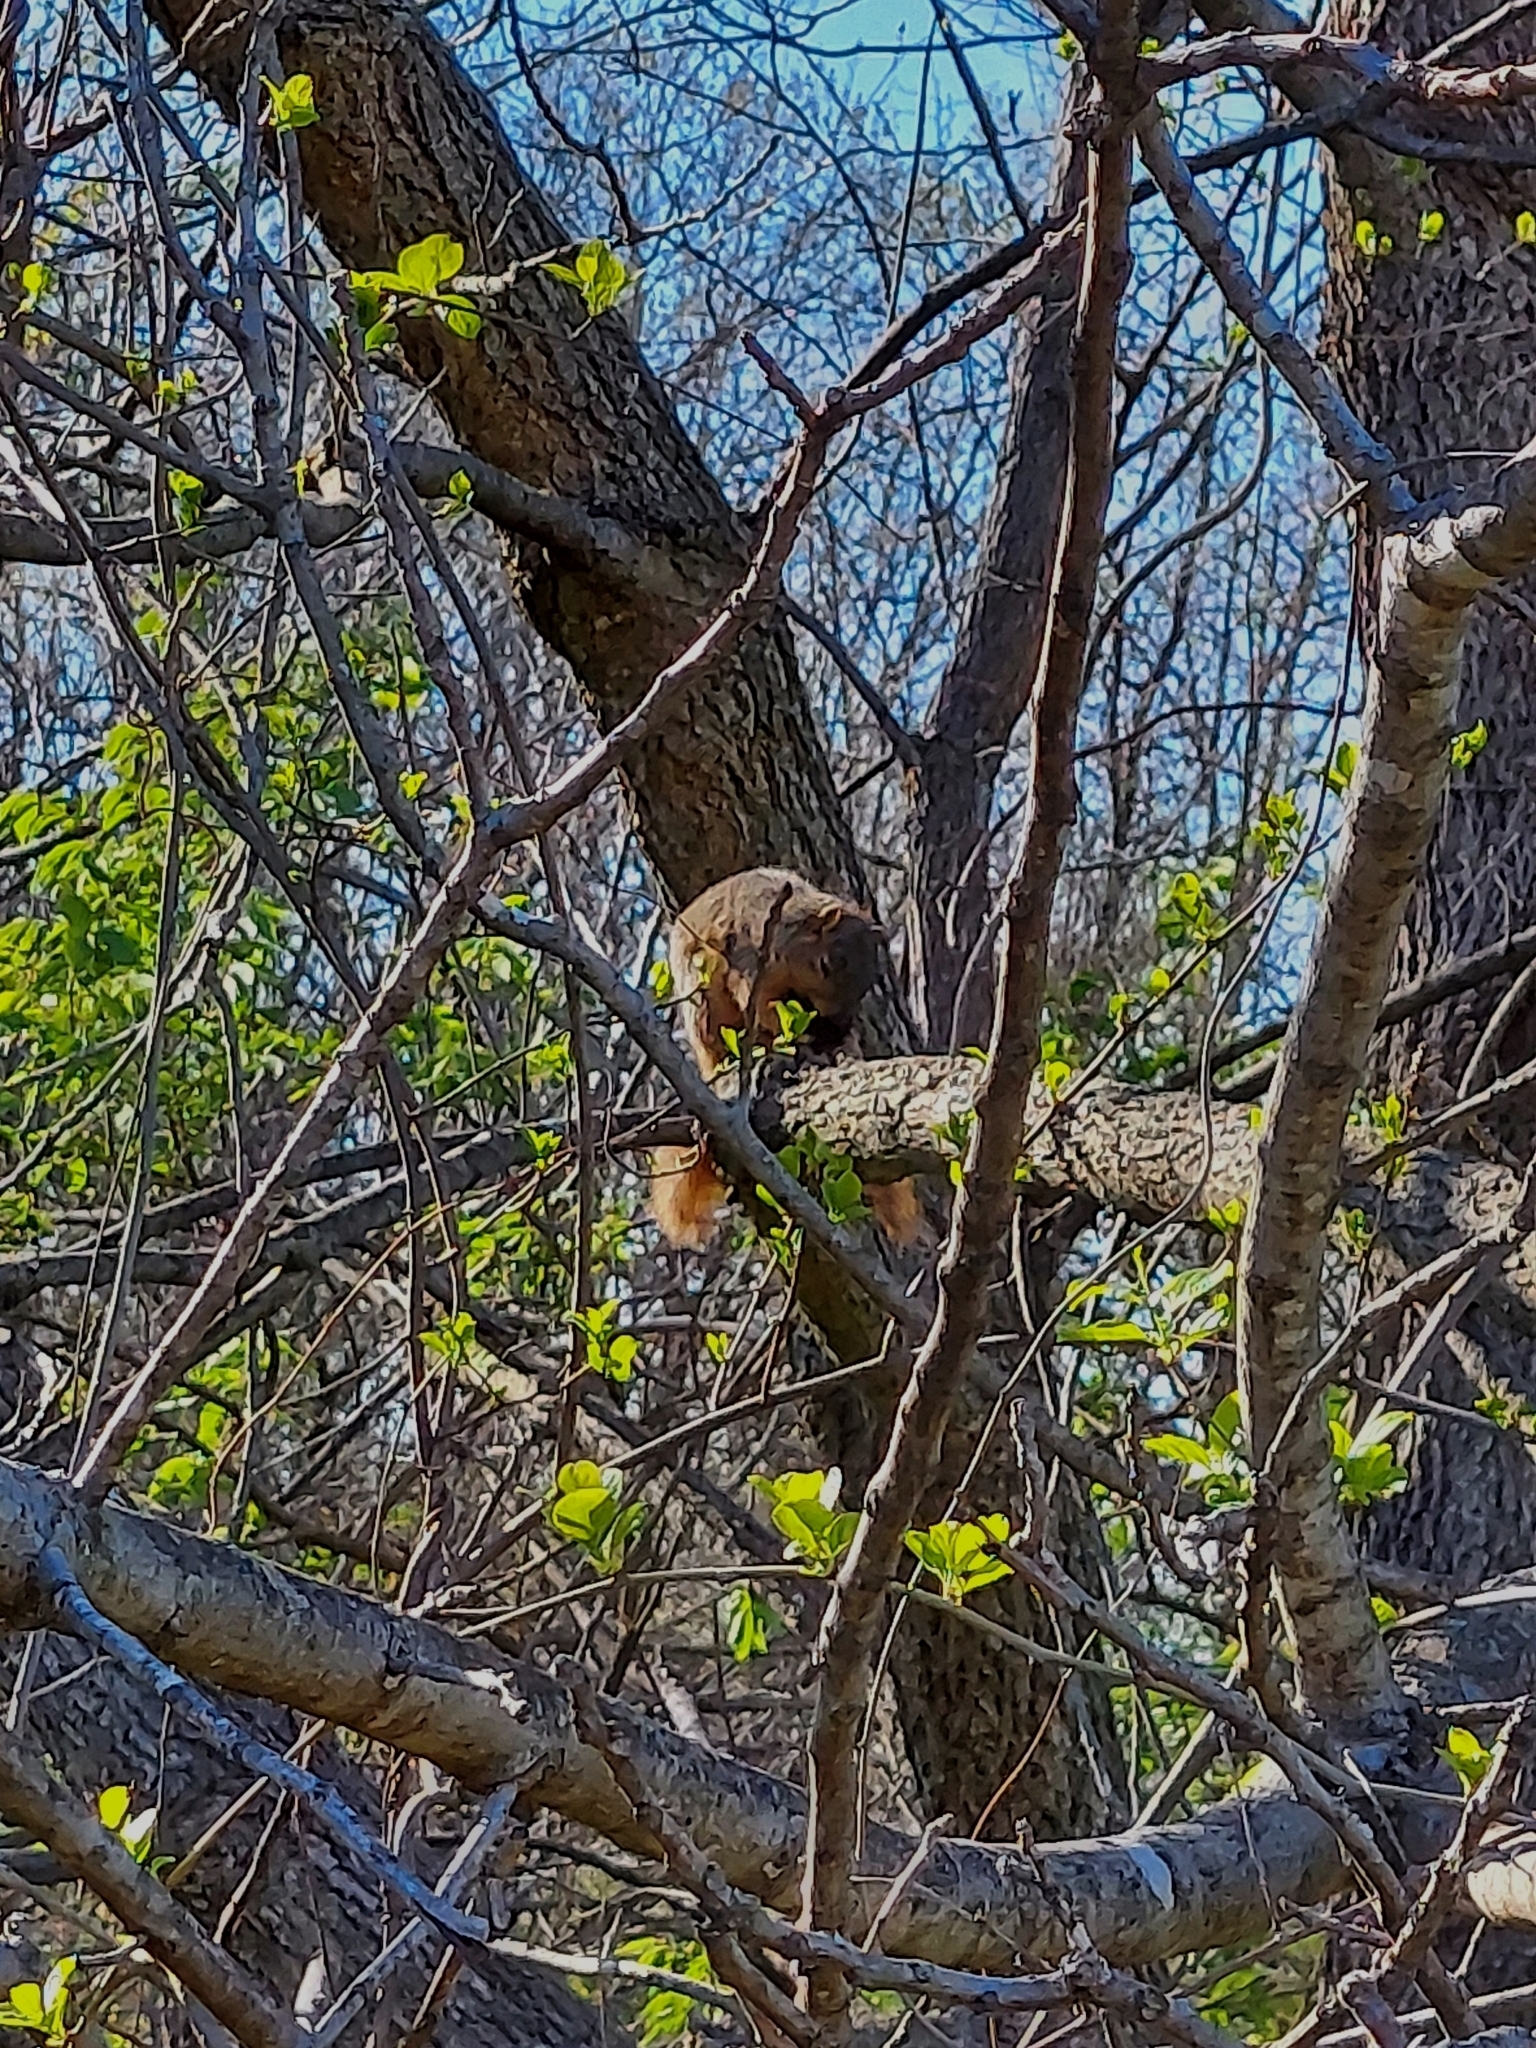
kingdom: Animalia
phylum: Chordata
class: Mammalia
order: Rodentia
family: Sciuridae
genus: Sciurus
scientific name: Sciurus niger
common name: Fox squirrel
